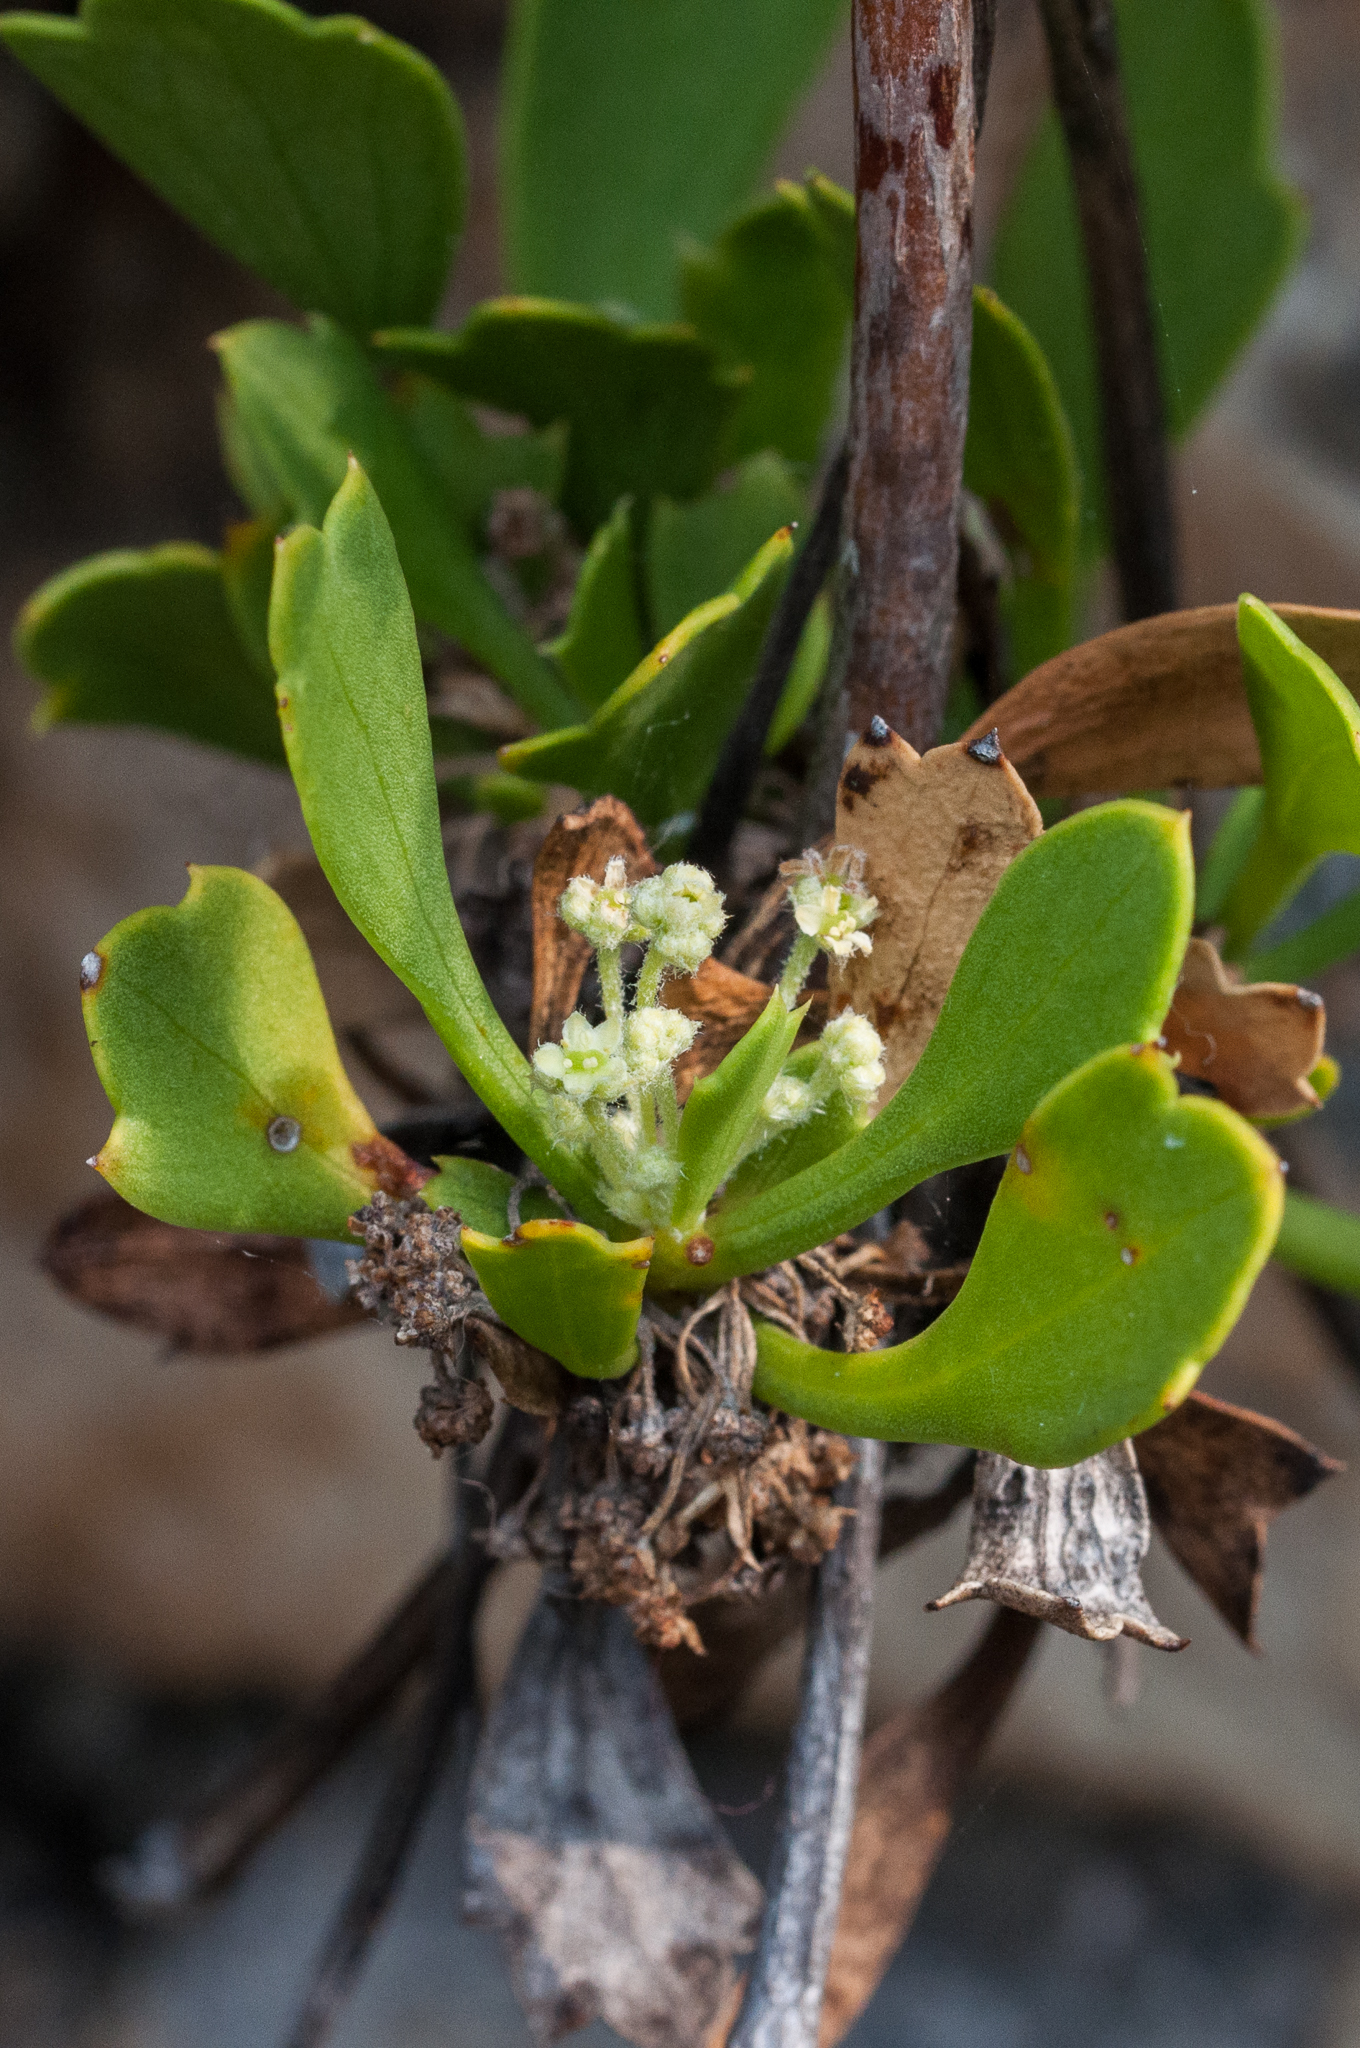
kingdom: Plantae
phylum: Tracheophyta
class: Magnoliopsida
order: Apiales
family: Apiaceae
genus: Centella
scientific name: Centella triloba
